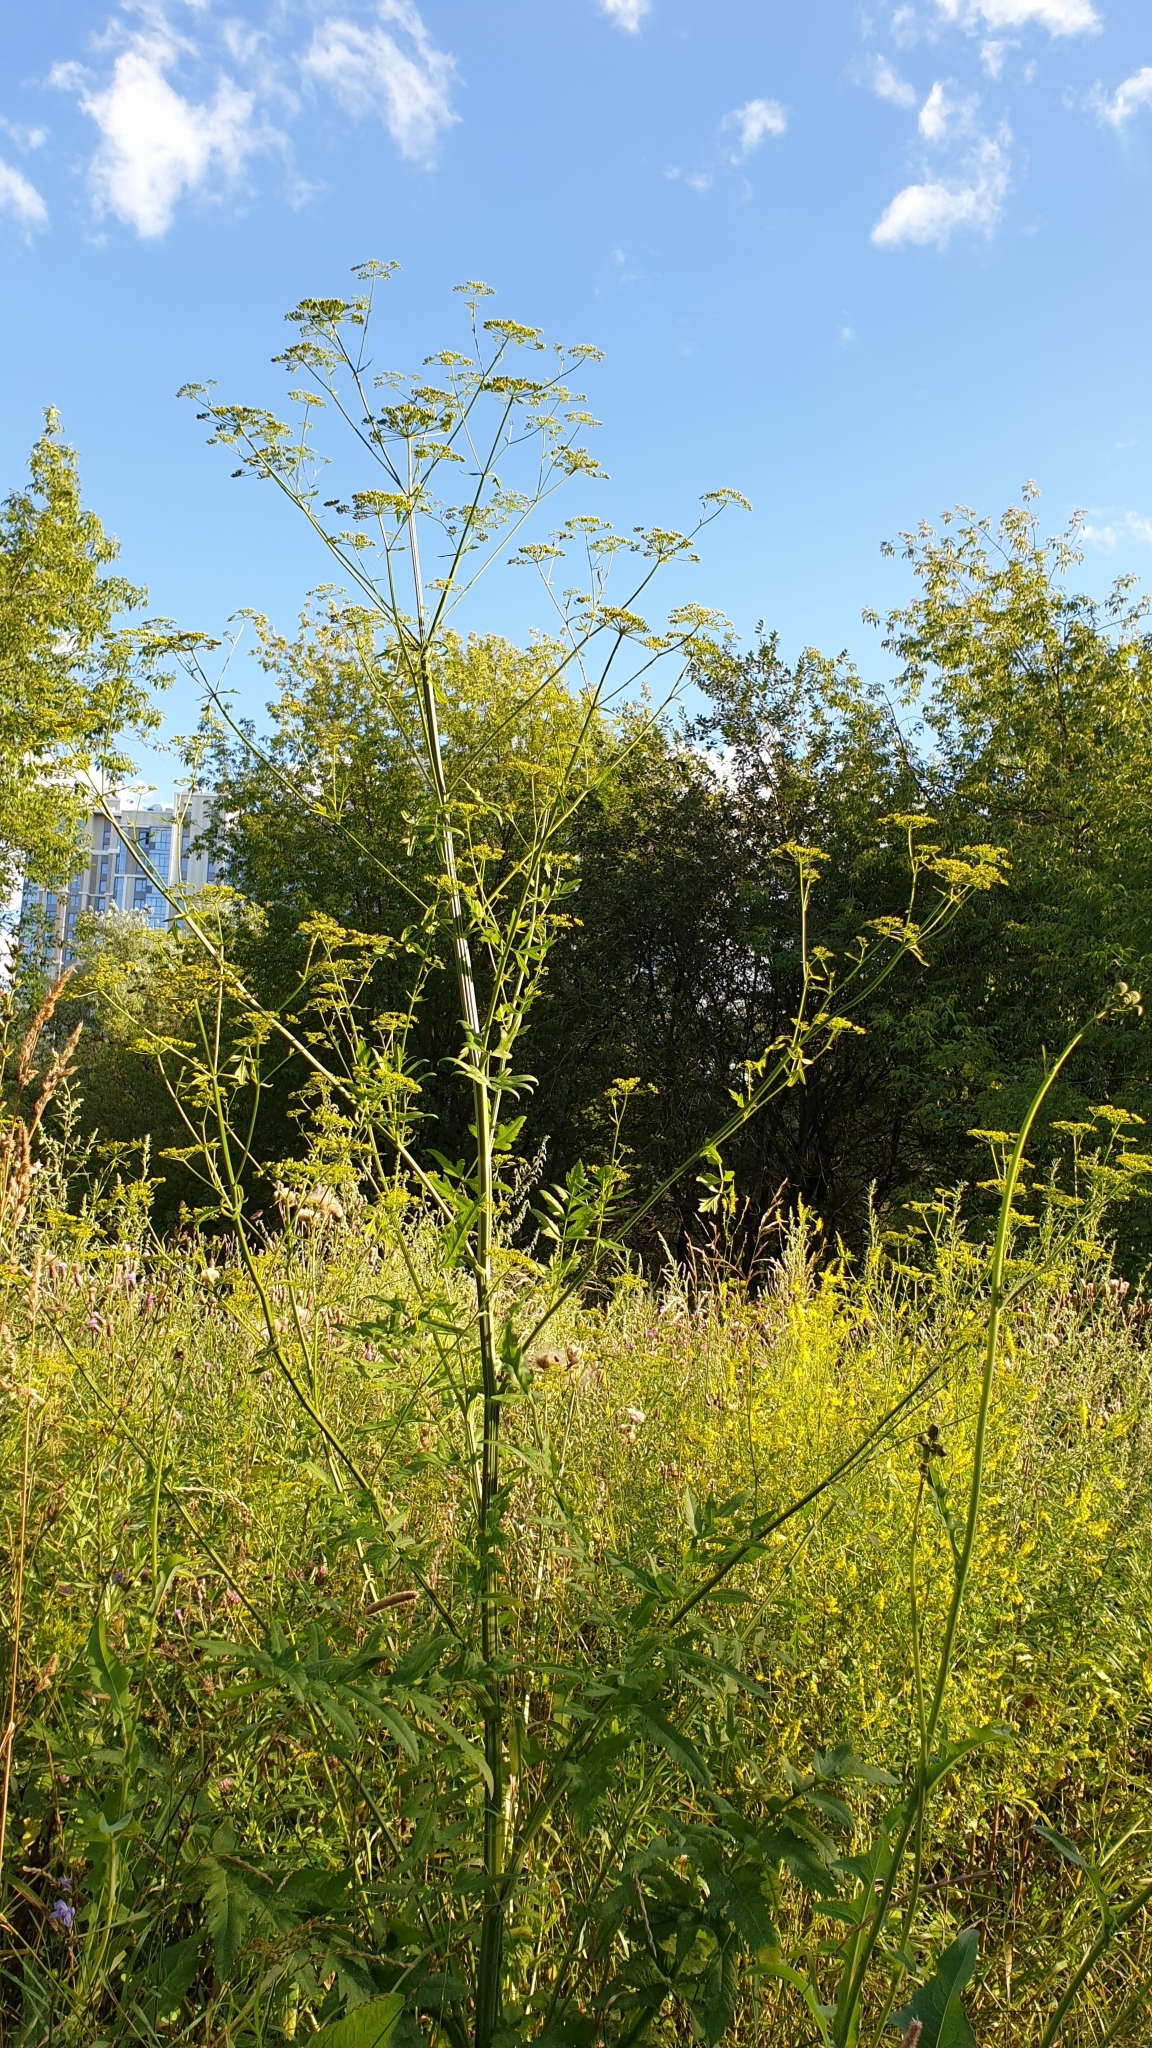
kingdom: Plantae
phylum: Tracheophyta
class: Magnoliopsida
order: Apiales
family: Apiaceae
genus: Pastinaca
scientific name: Pastinaca sativa
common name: Wild parsnip
